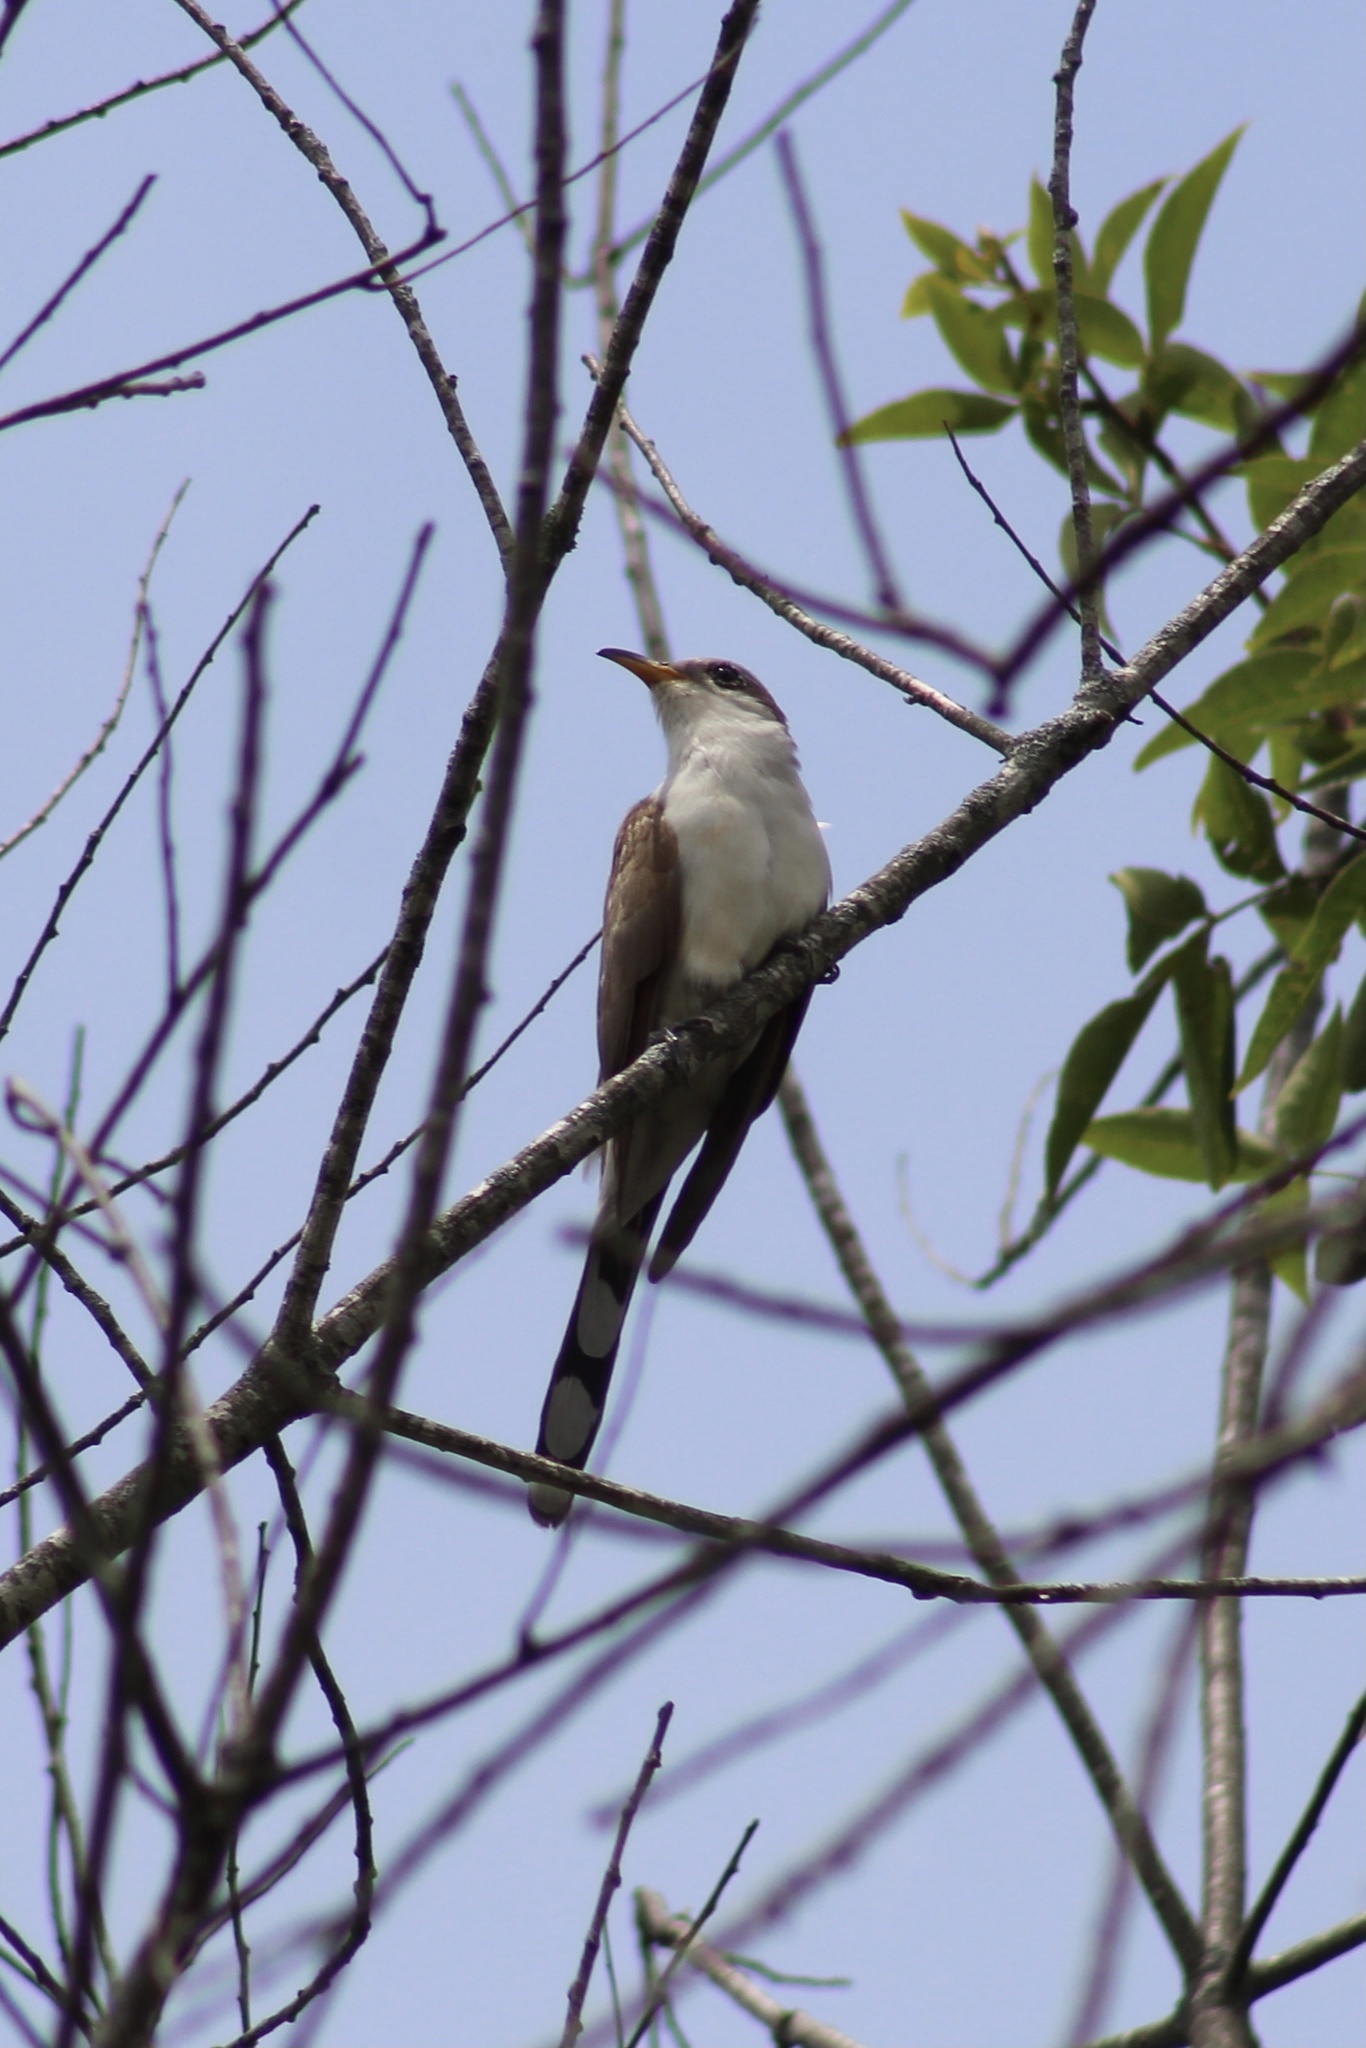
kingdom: Animalia
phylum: Chordata
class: Aves
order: Cuculiformes
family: Cuculidae
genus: Coccyzus
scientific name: Coccyzus americanus
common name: Yellow-billed cuckoo
